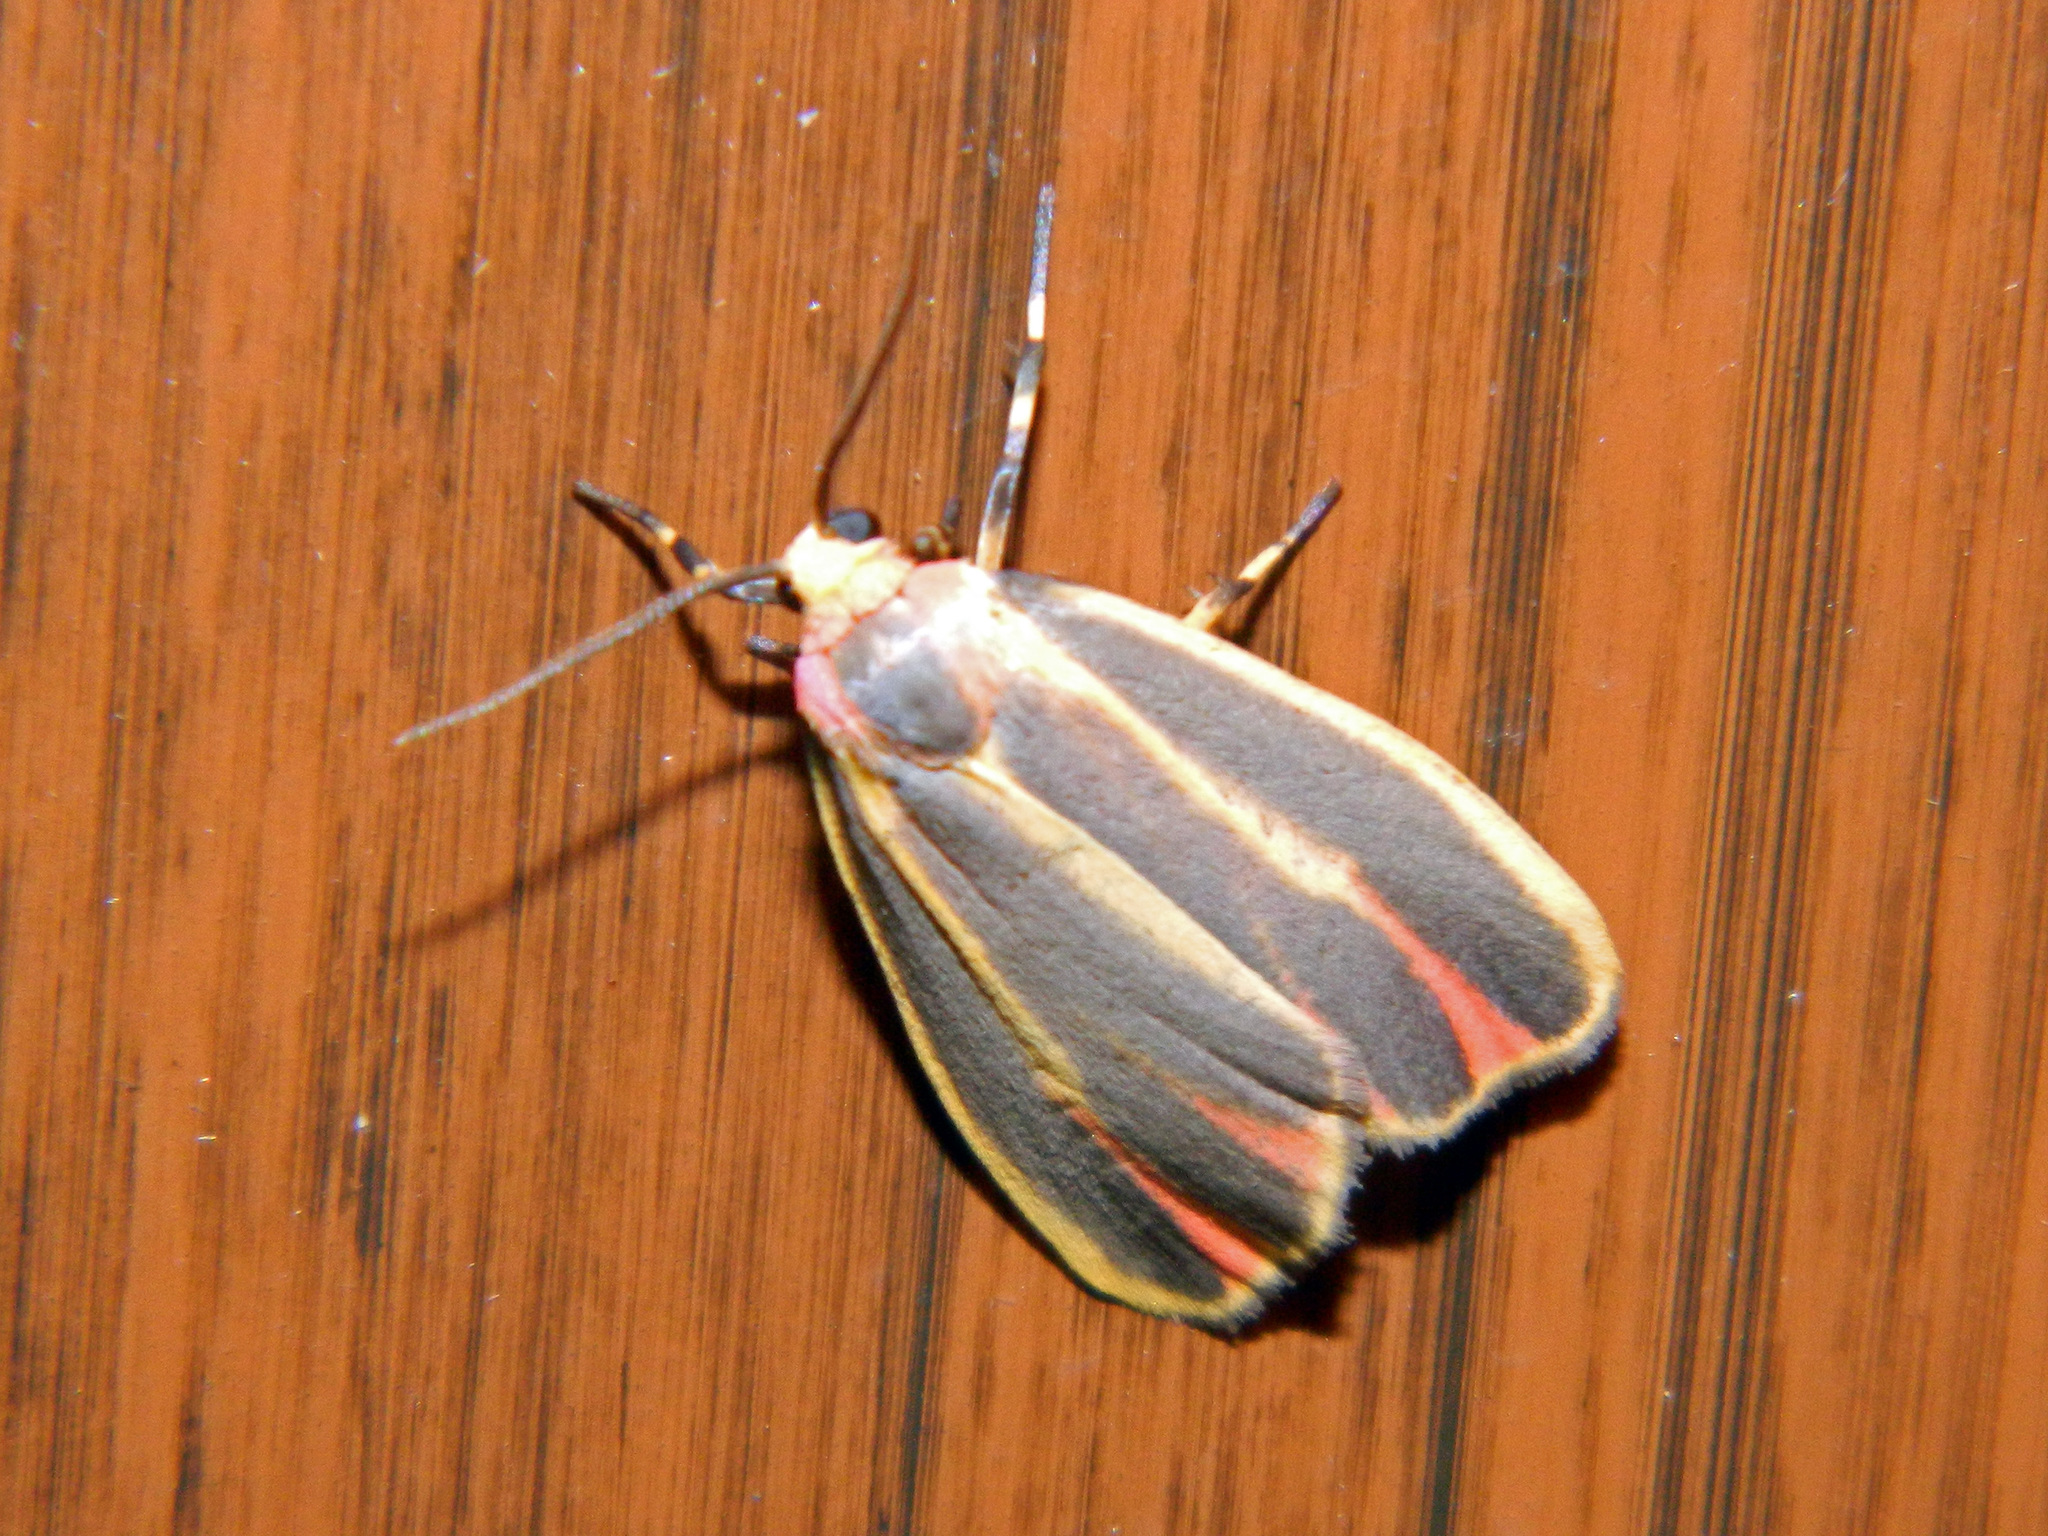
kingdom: Animalia
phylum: Arthropoda
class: Insecta
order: Lepidoptera
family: Erebidae
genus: Hypoprepia
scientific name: Hypoprepia fucosa
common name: Painted lichen moth
